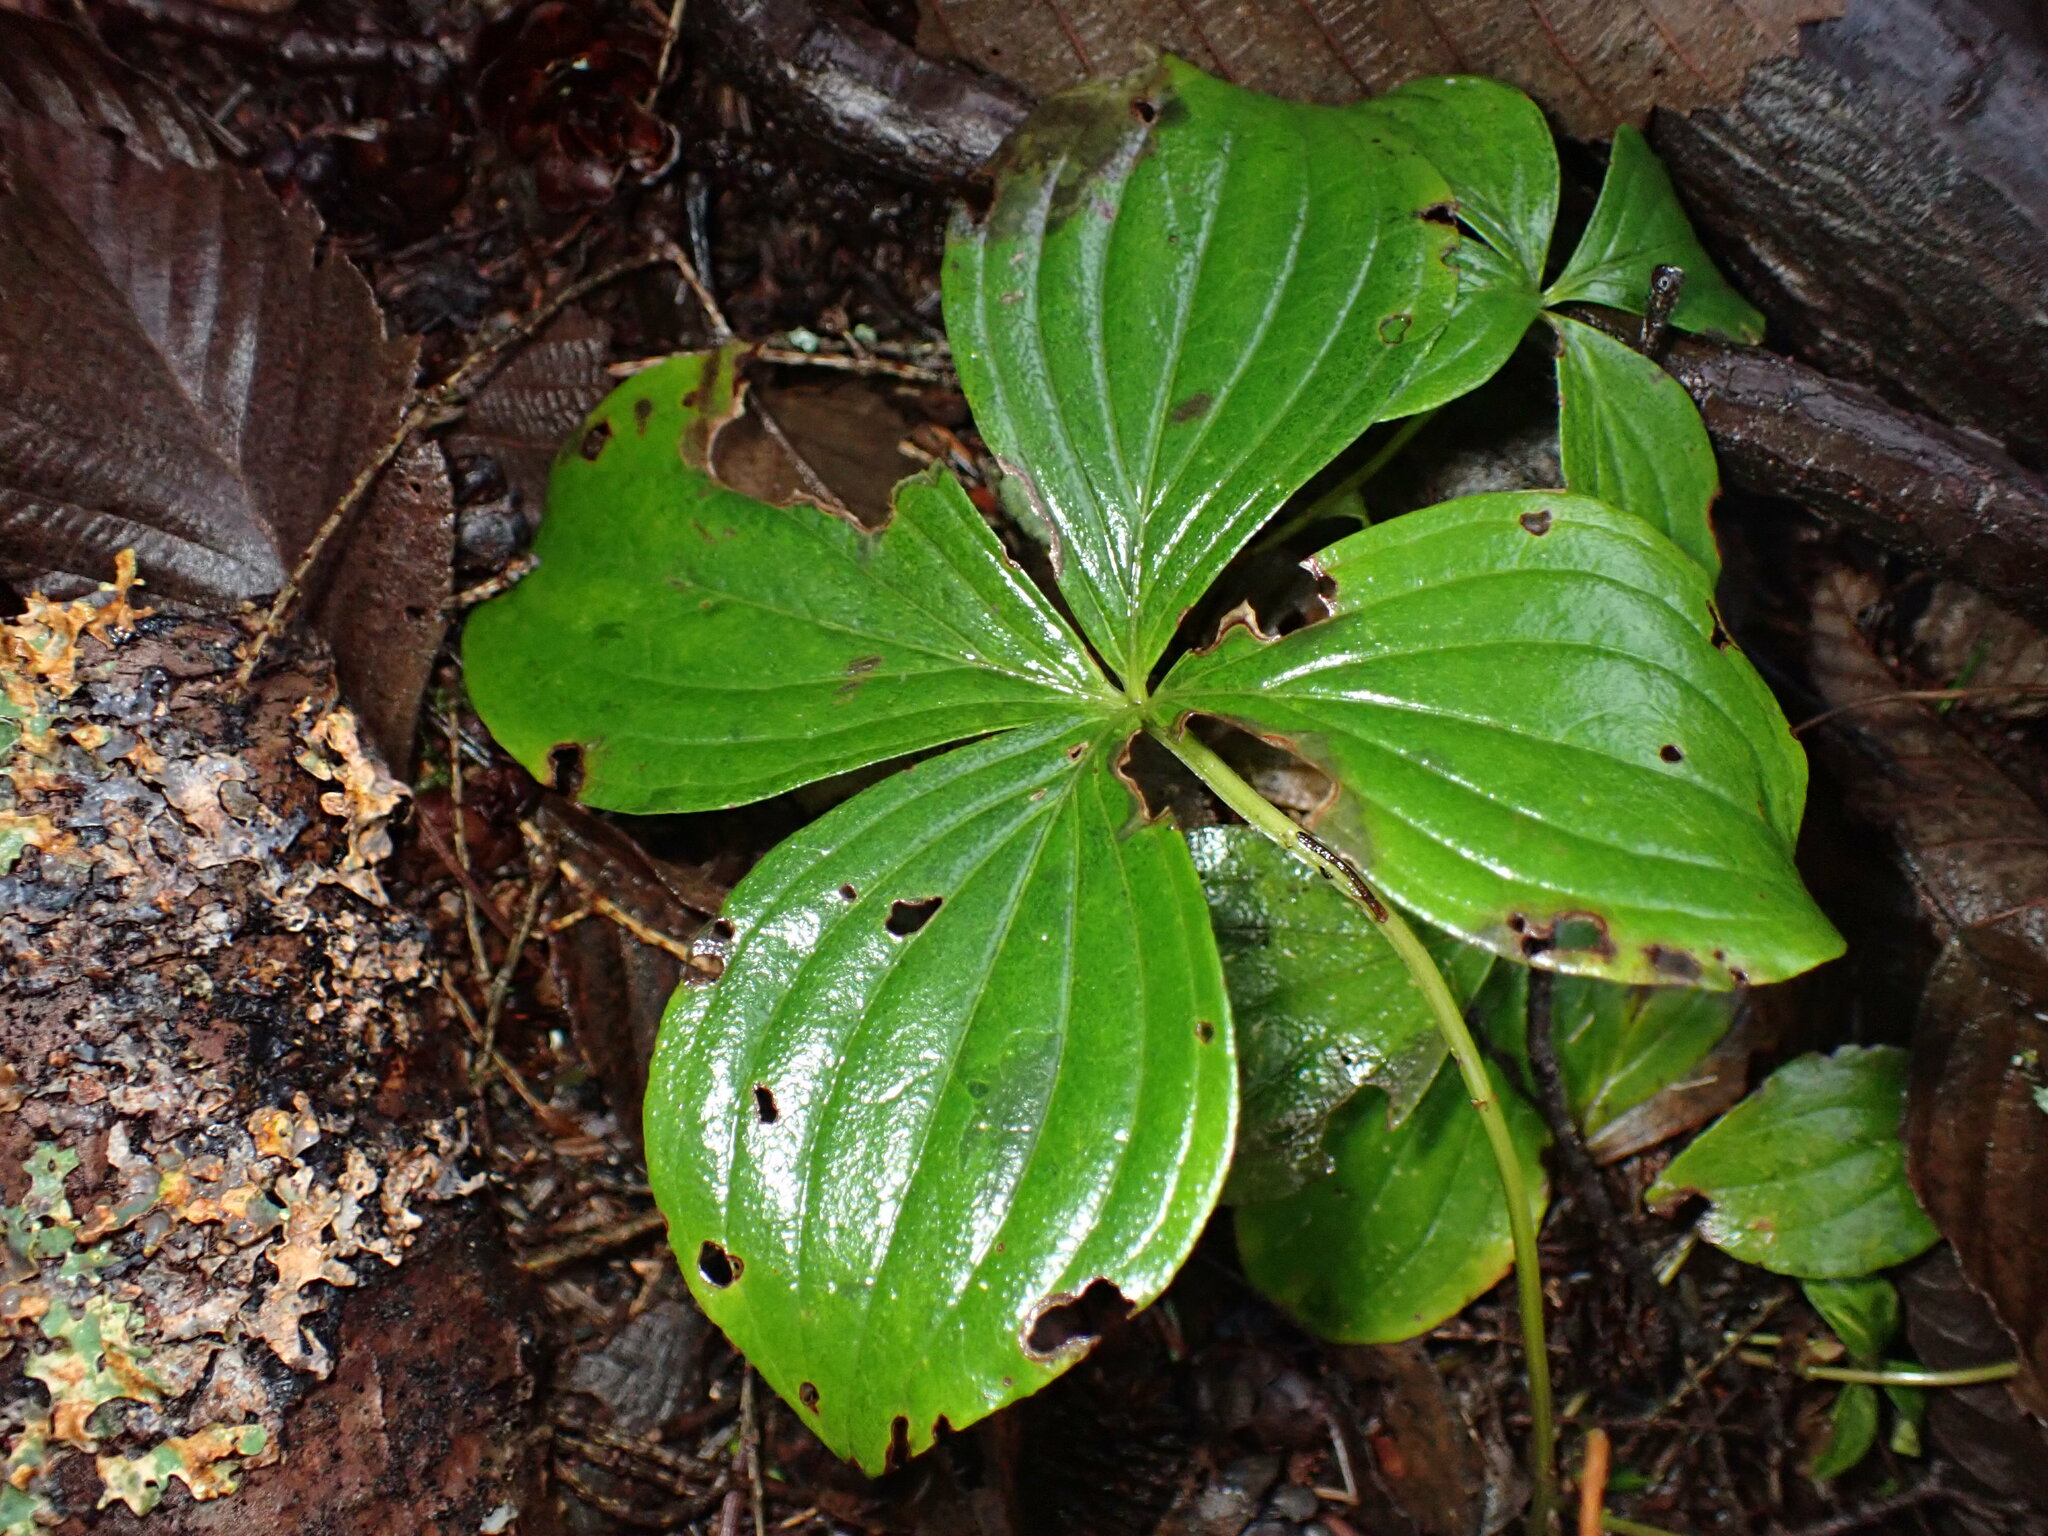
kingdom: Plantae
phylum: Tracheophyta
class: Magnoliopsida
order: Cornales
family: Cornaceae
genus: Cornus
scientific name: Cornus unalaschkensis
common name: Alaska bunchberry
